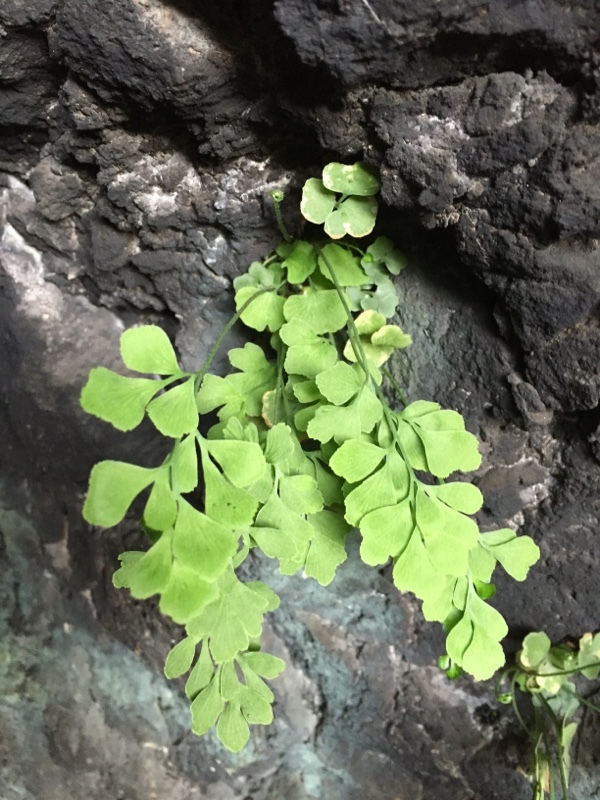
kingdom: Plantae
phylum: Tracheophyta
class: Polypodiopsida
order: Polypodiales
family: Pteridaceae
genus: Adiantum
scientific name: Adiantum capillus-veneris
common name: Maidenhair fern
